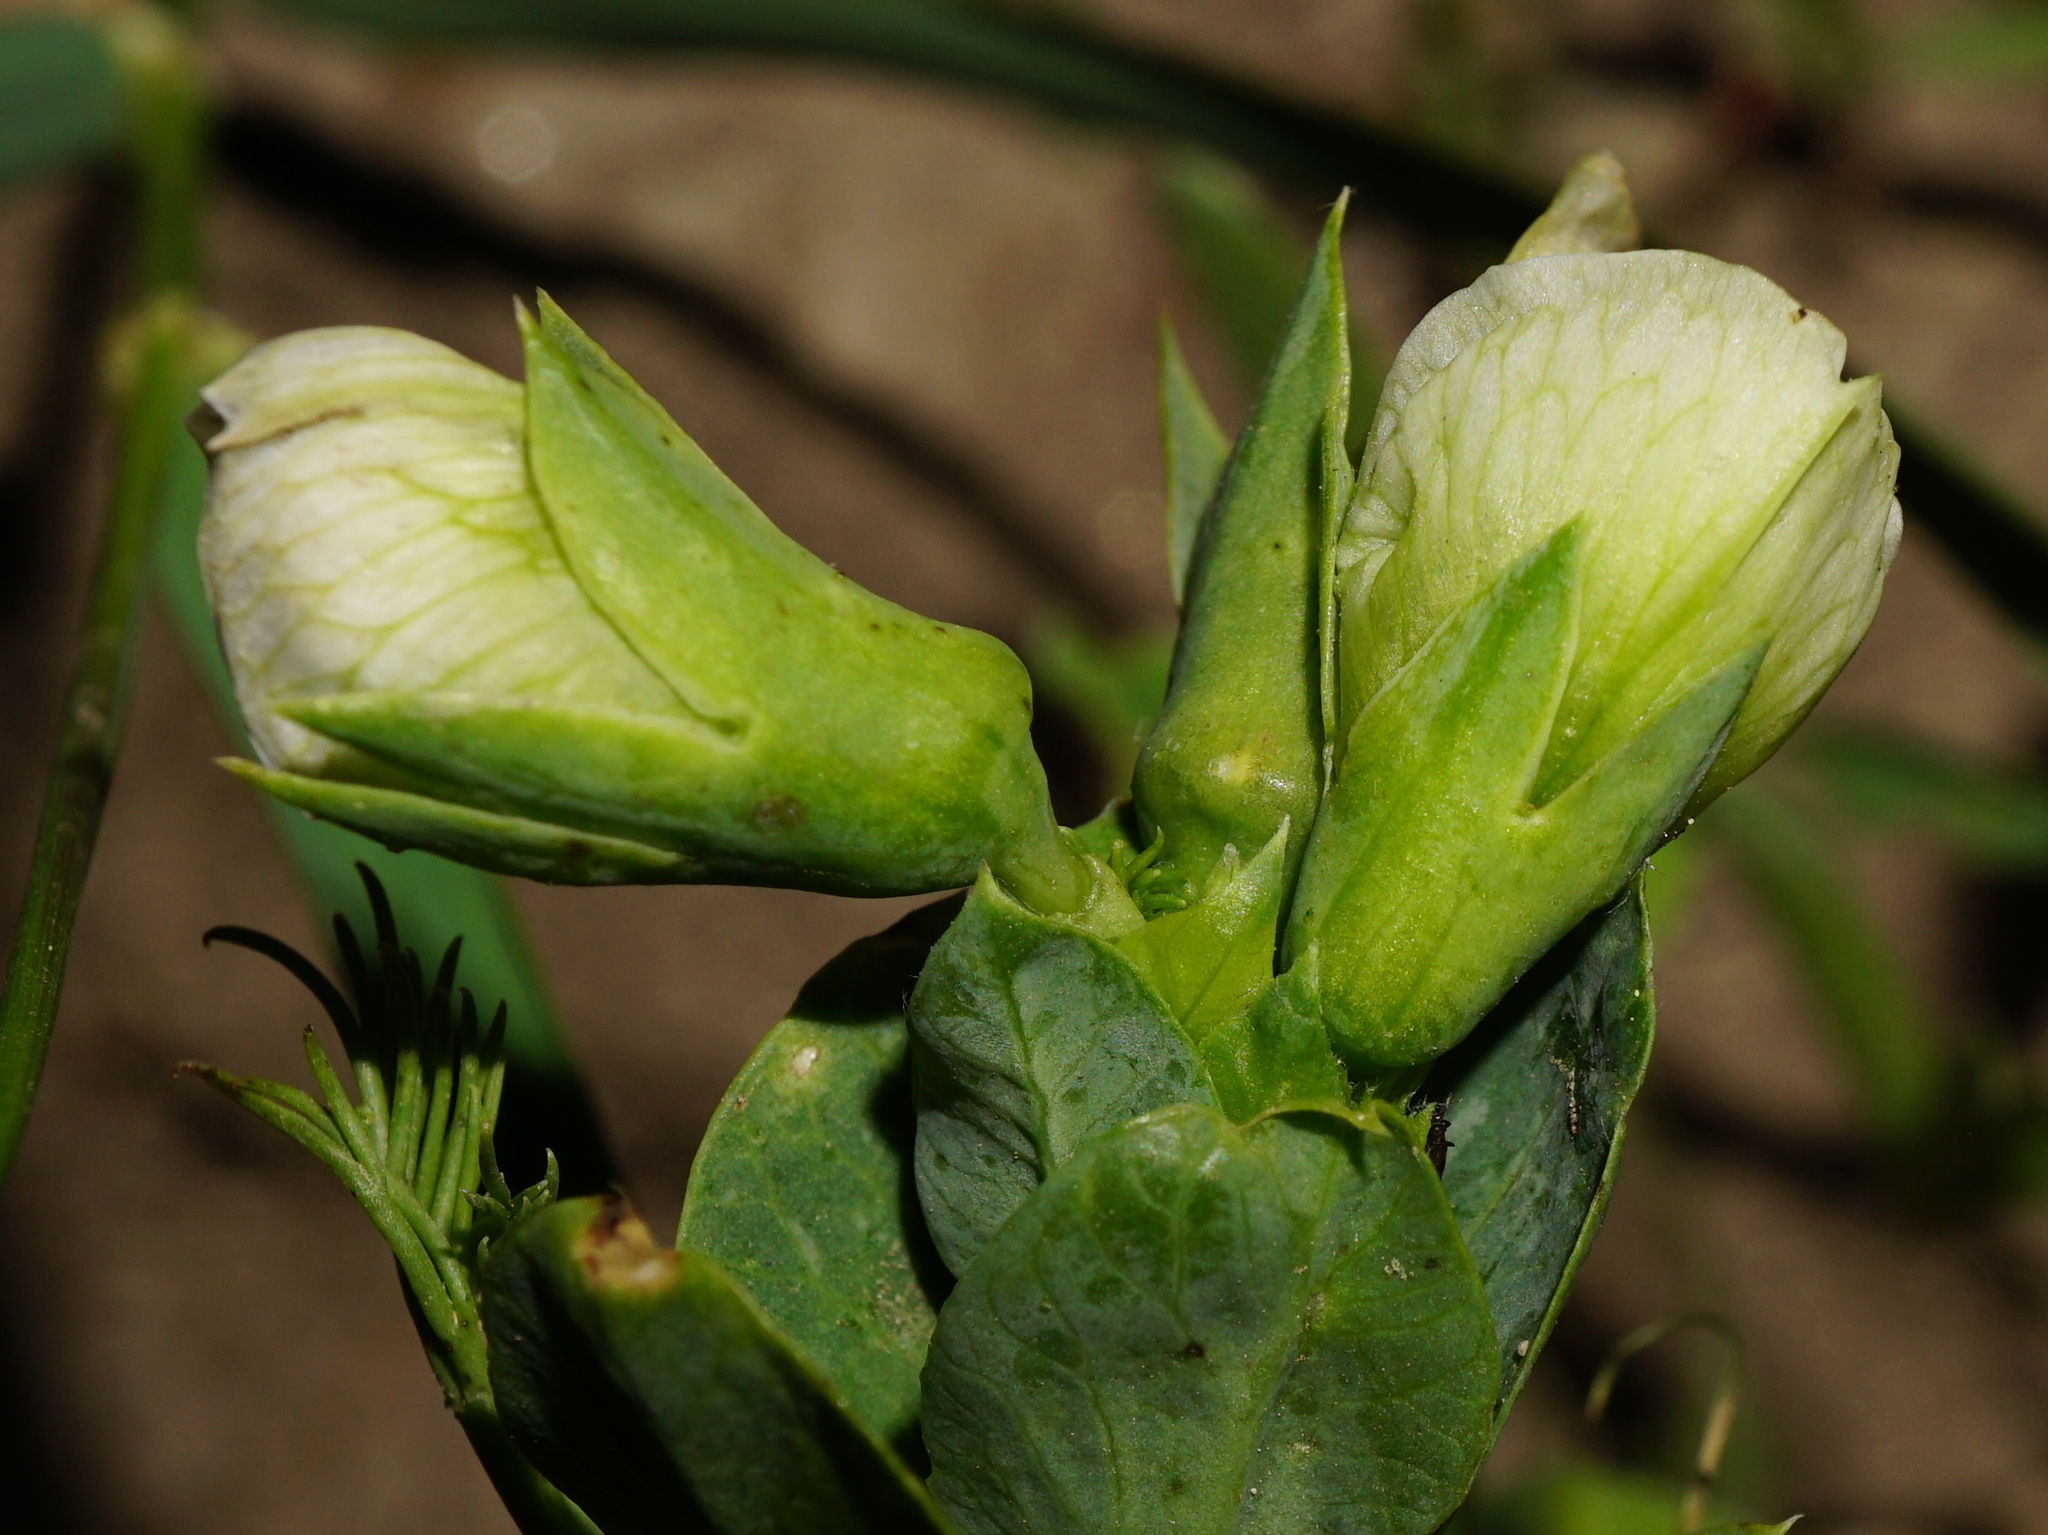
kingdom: Plantae
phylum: Tracheophyta
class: Magnoliopsida
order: Fabales
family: Fabaceae
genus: Lathyrus
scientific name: Lathyrus oleraceus
